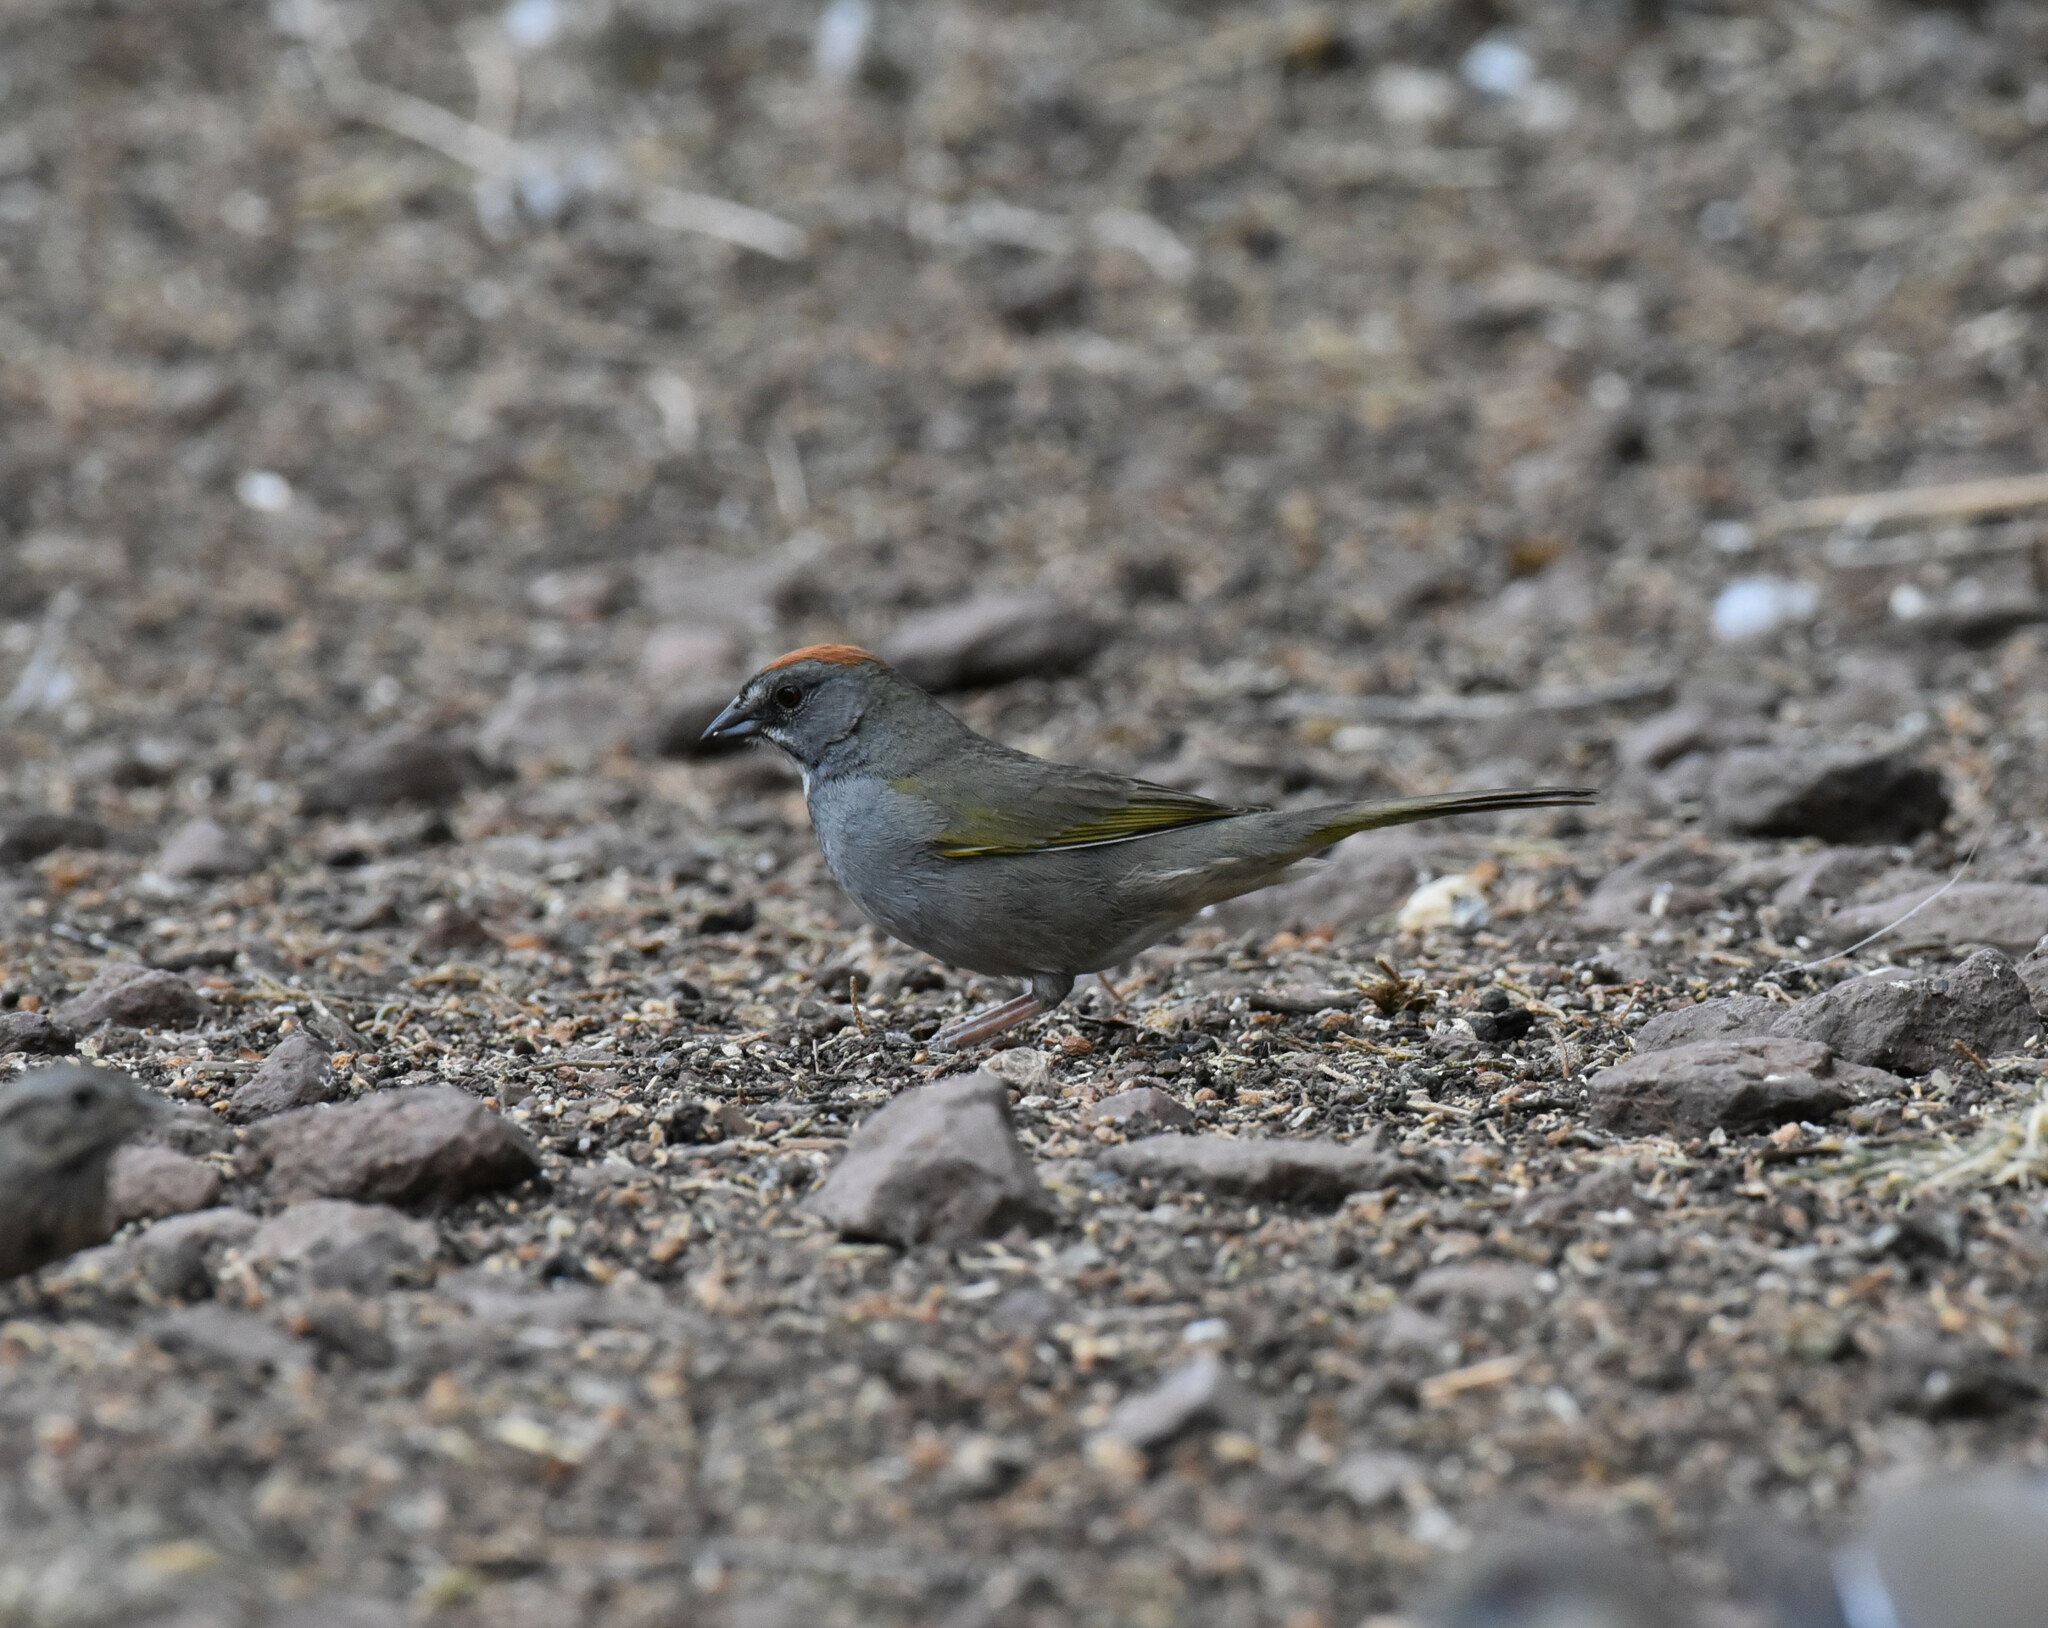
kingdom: Animalia
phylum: Chordata
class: Aves
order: Passeriformes
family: Passerellidae
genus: Pipilo
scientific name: Pipilo chlorurus
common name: Green-tailed towhee
